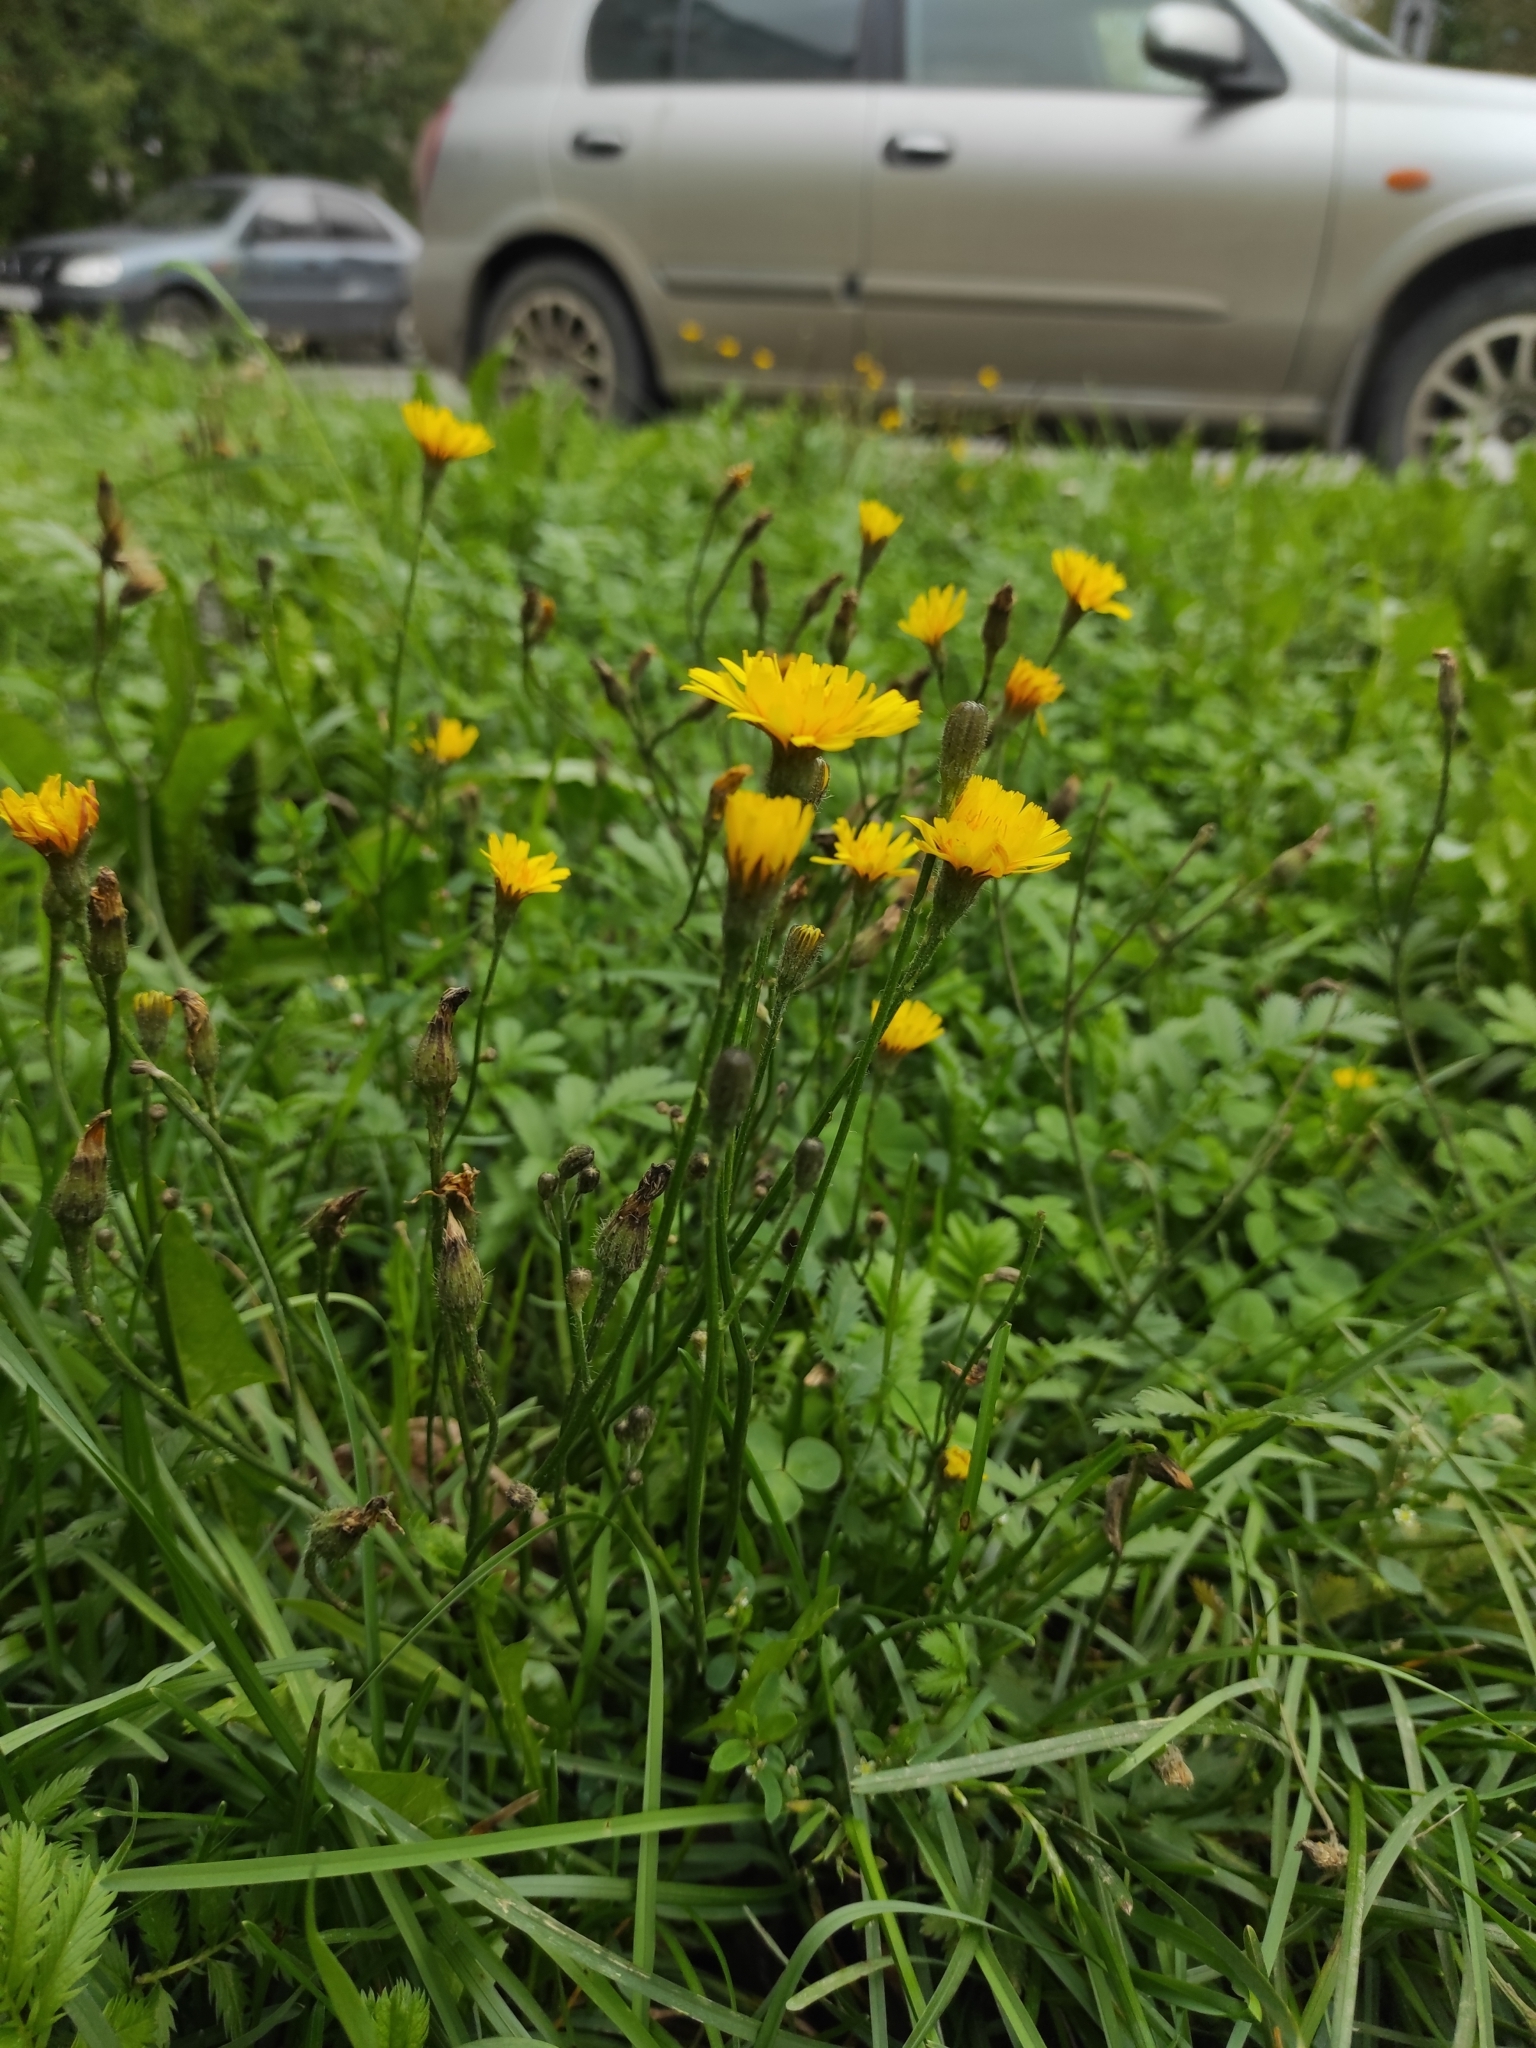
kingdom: Plantae
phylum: Tracheophyta
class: Magnoliopsida
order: Asterales
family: Asteraceae
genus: Scorzoneroides
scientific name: Scorzoneroides autumnalis
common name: Autumn hawkbit
